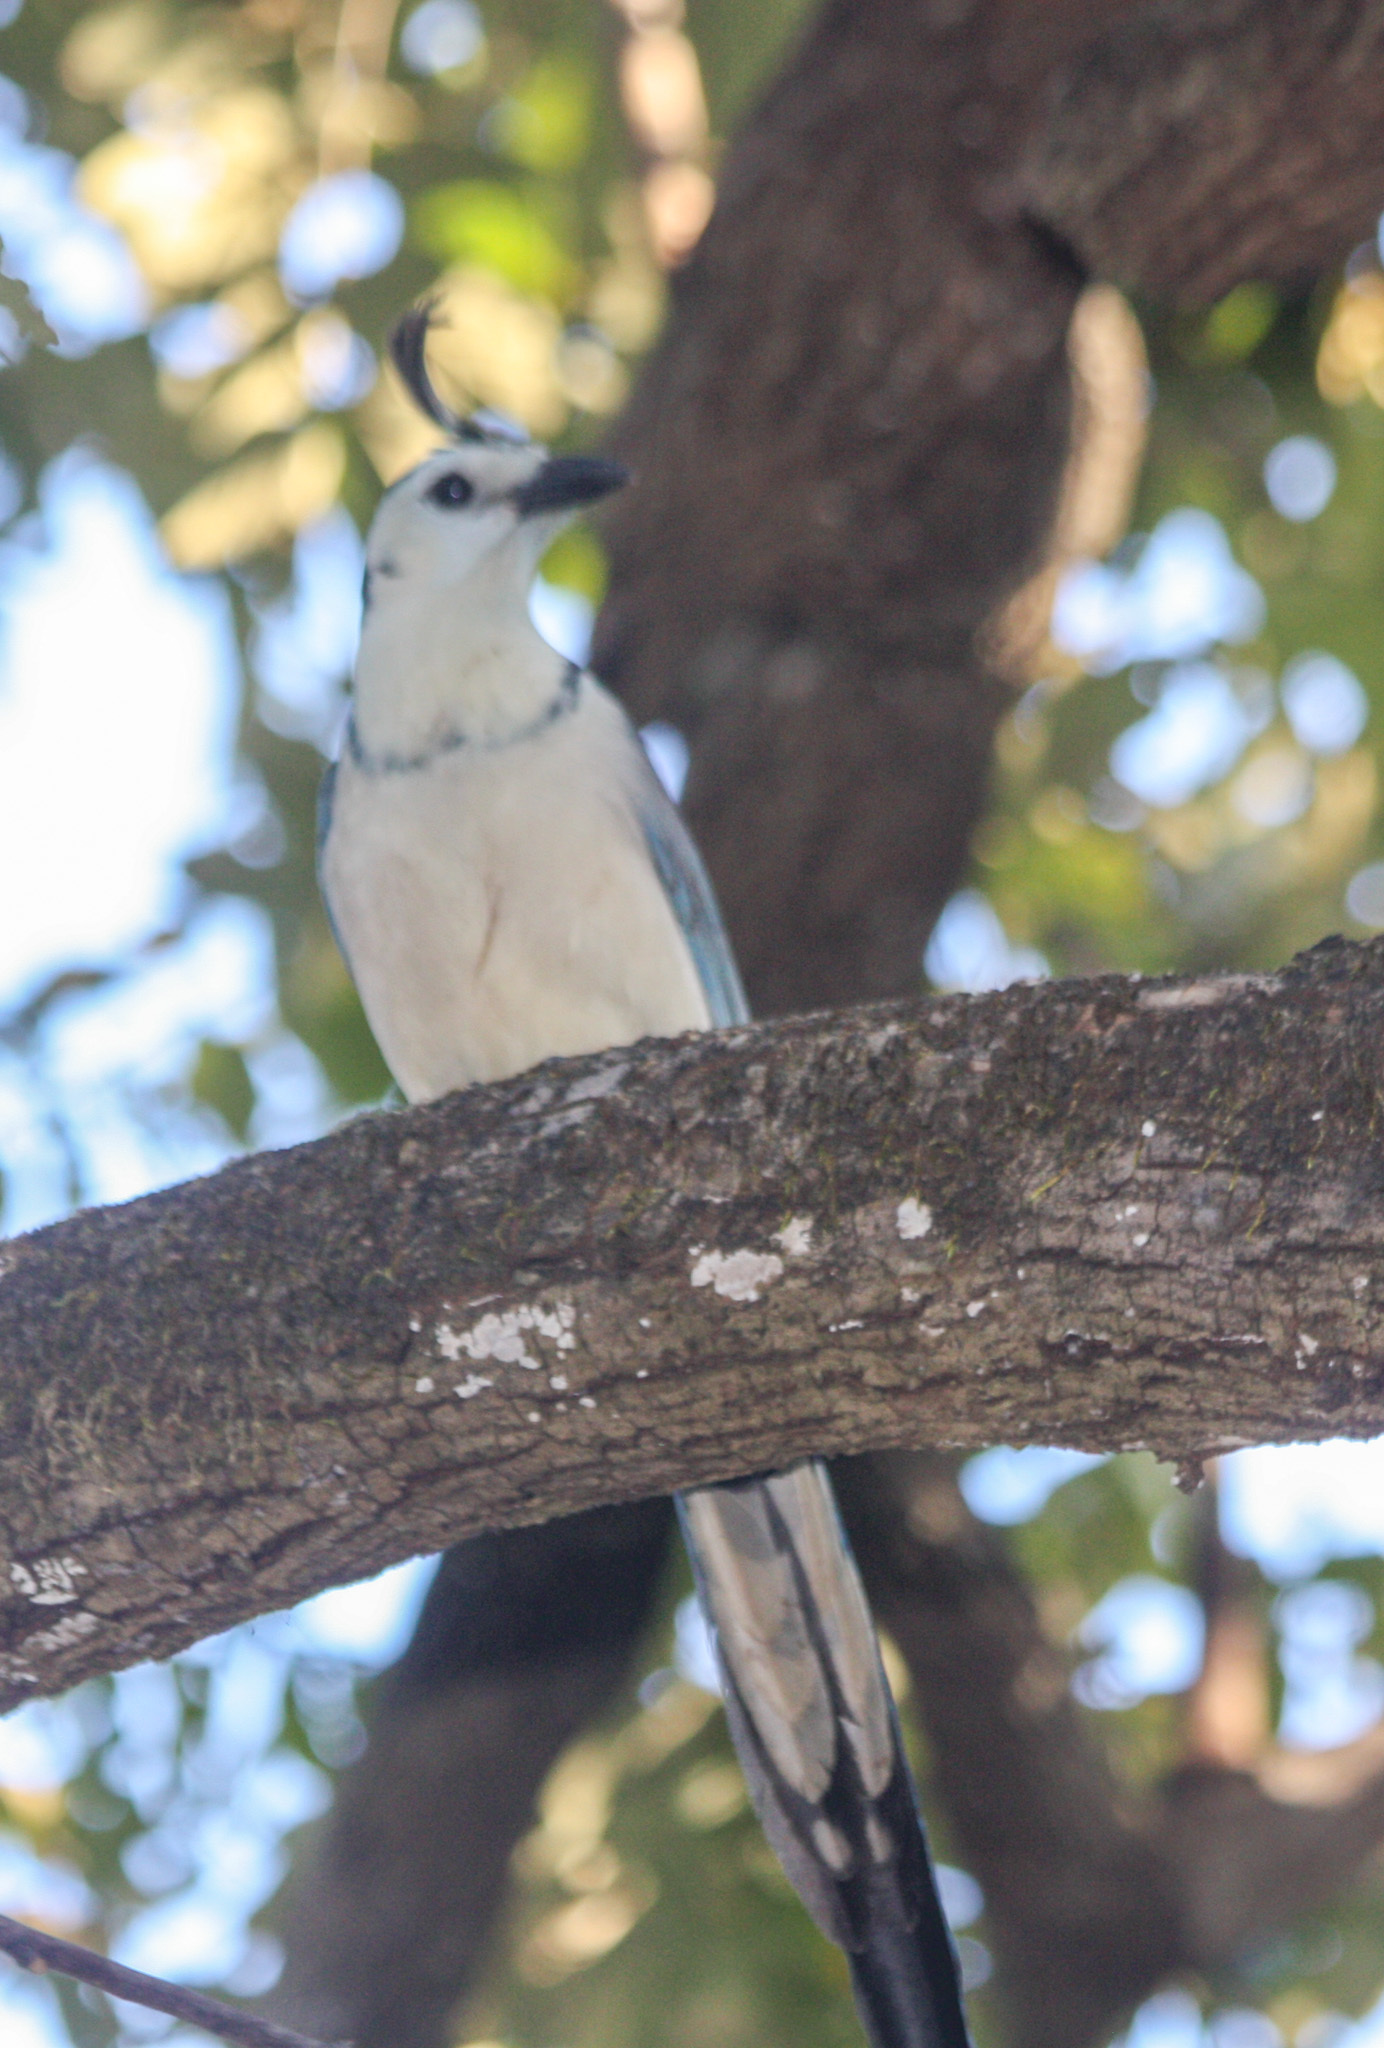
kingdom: Animalia
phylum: Chordata
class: Aves
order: Passeriformes
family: Corvidae
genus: Calocitta
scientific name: Calocitta formosa
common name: White-throated magpie-jay
